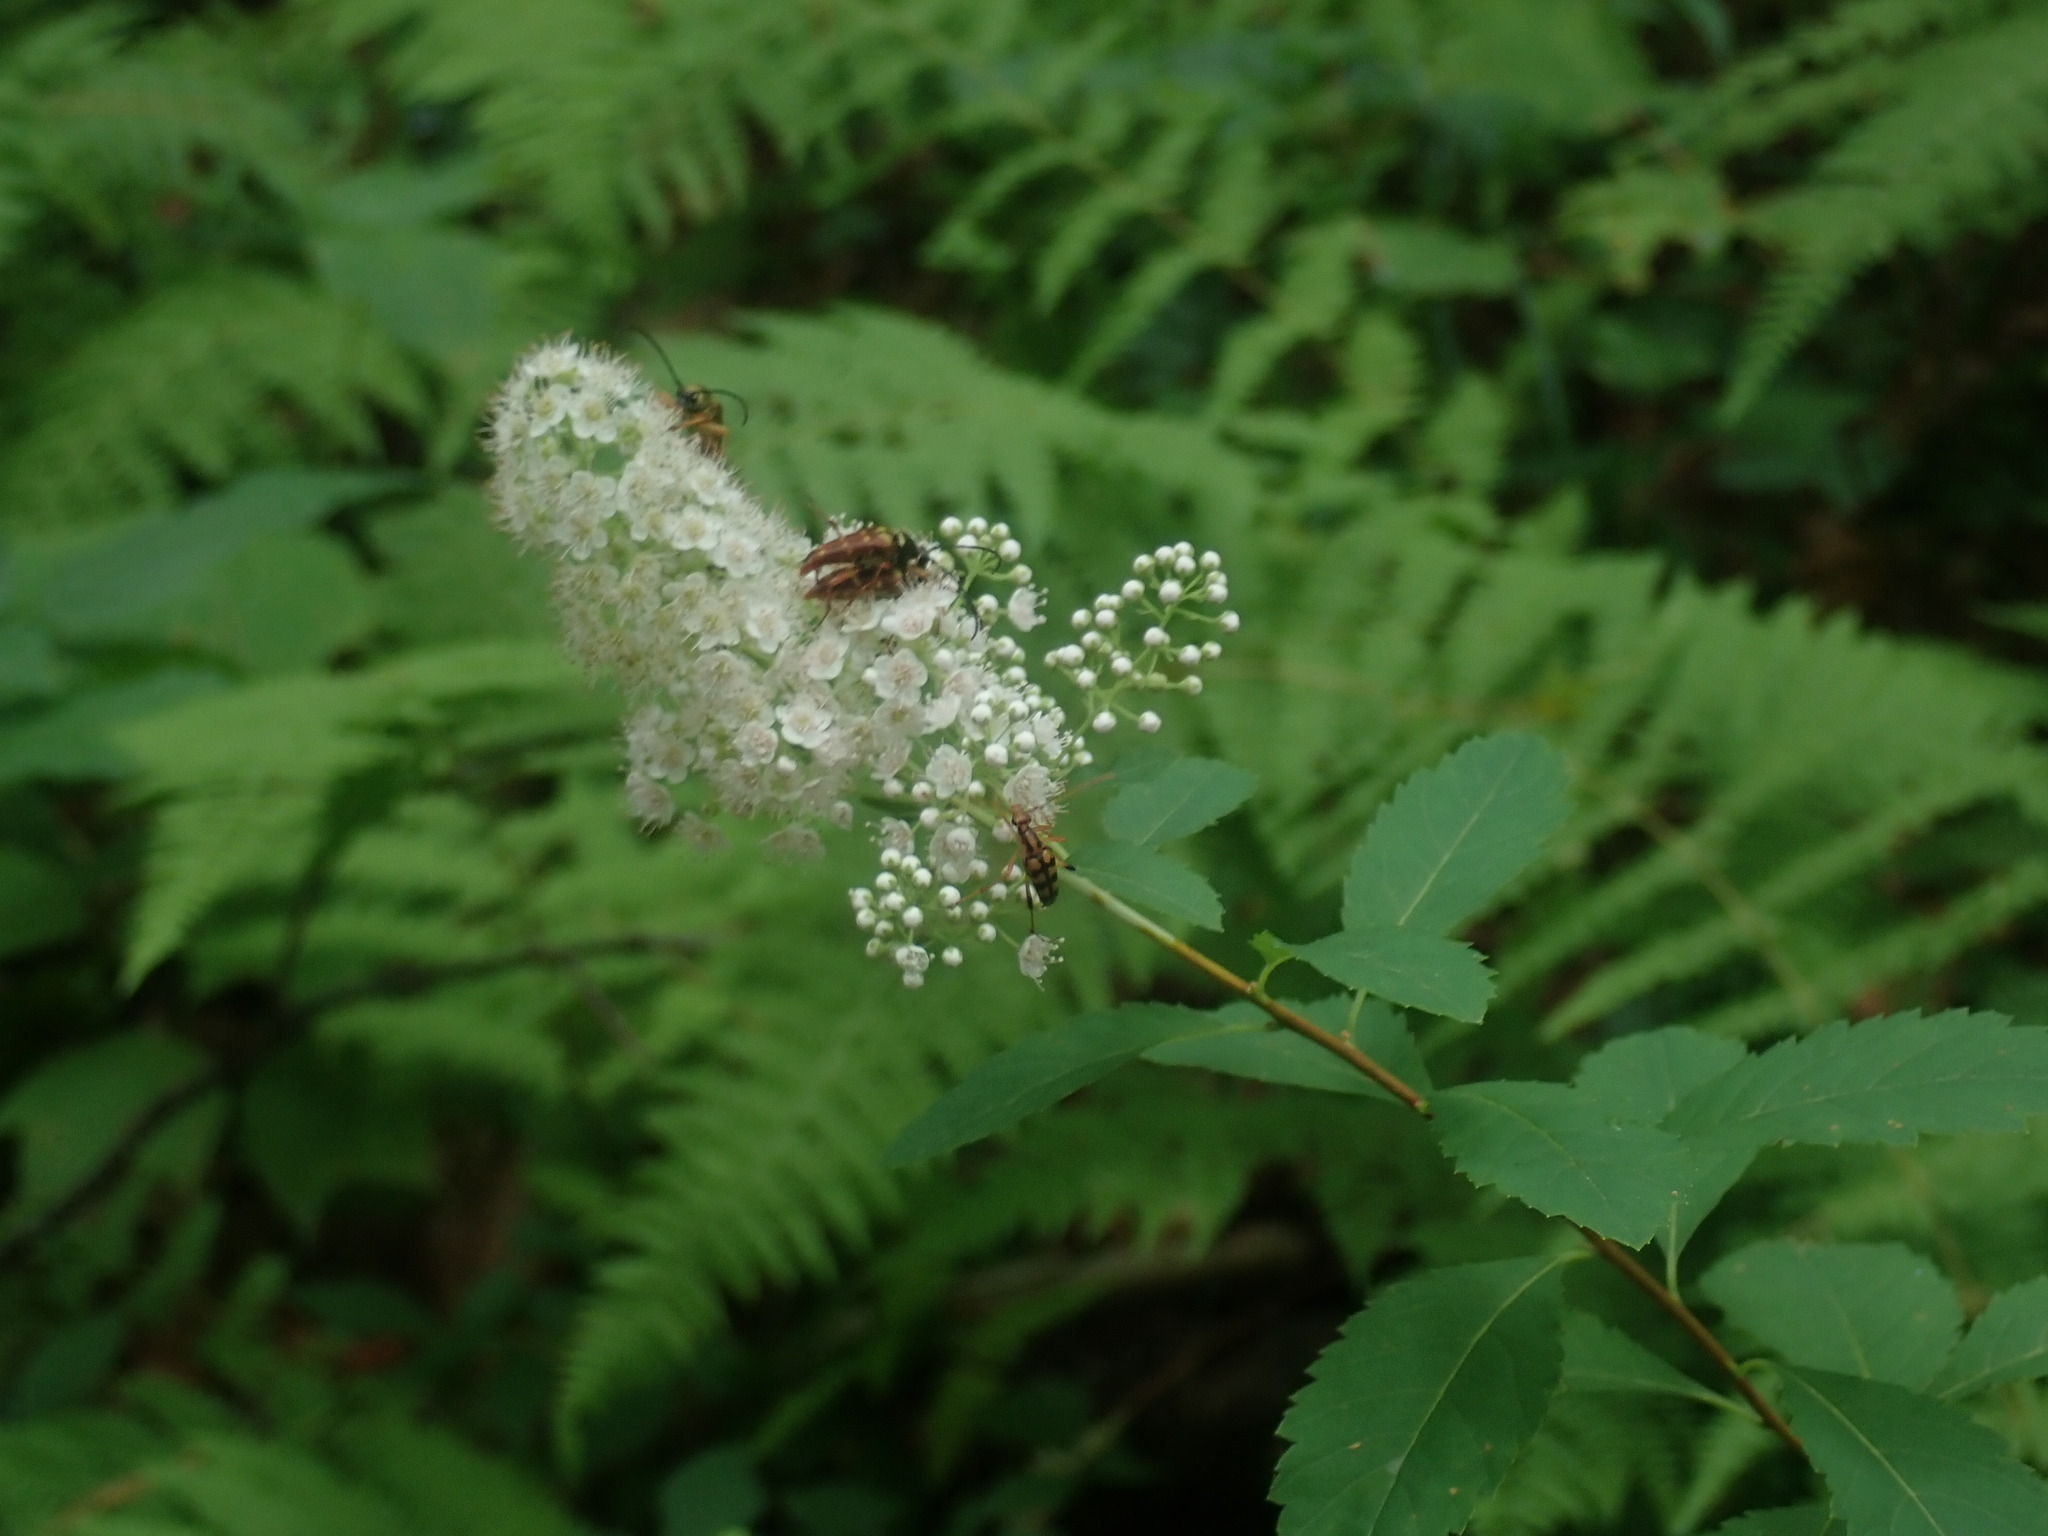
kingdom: Plantae
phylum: Tracheophyta
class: Magnoliopsida
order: Rosales
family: Rosaceae
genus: Spiraea
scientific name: Spiraea alba
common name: Pale bridewort
